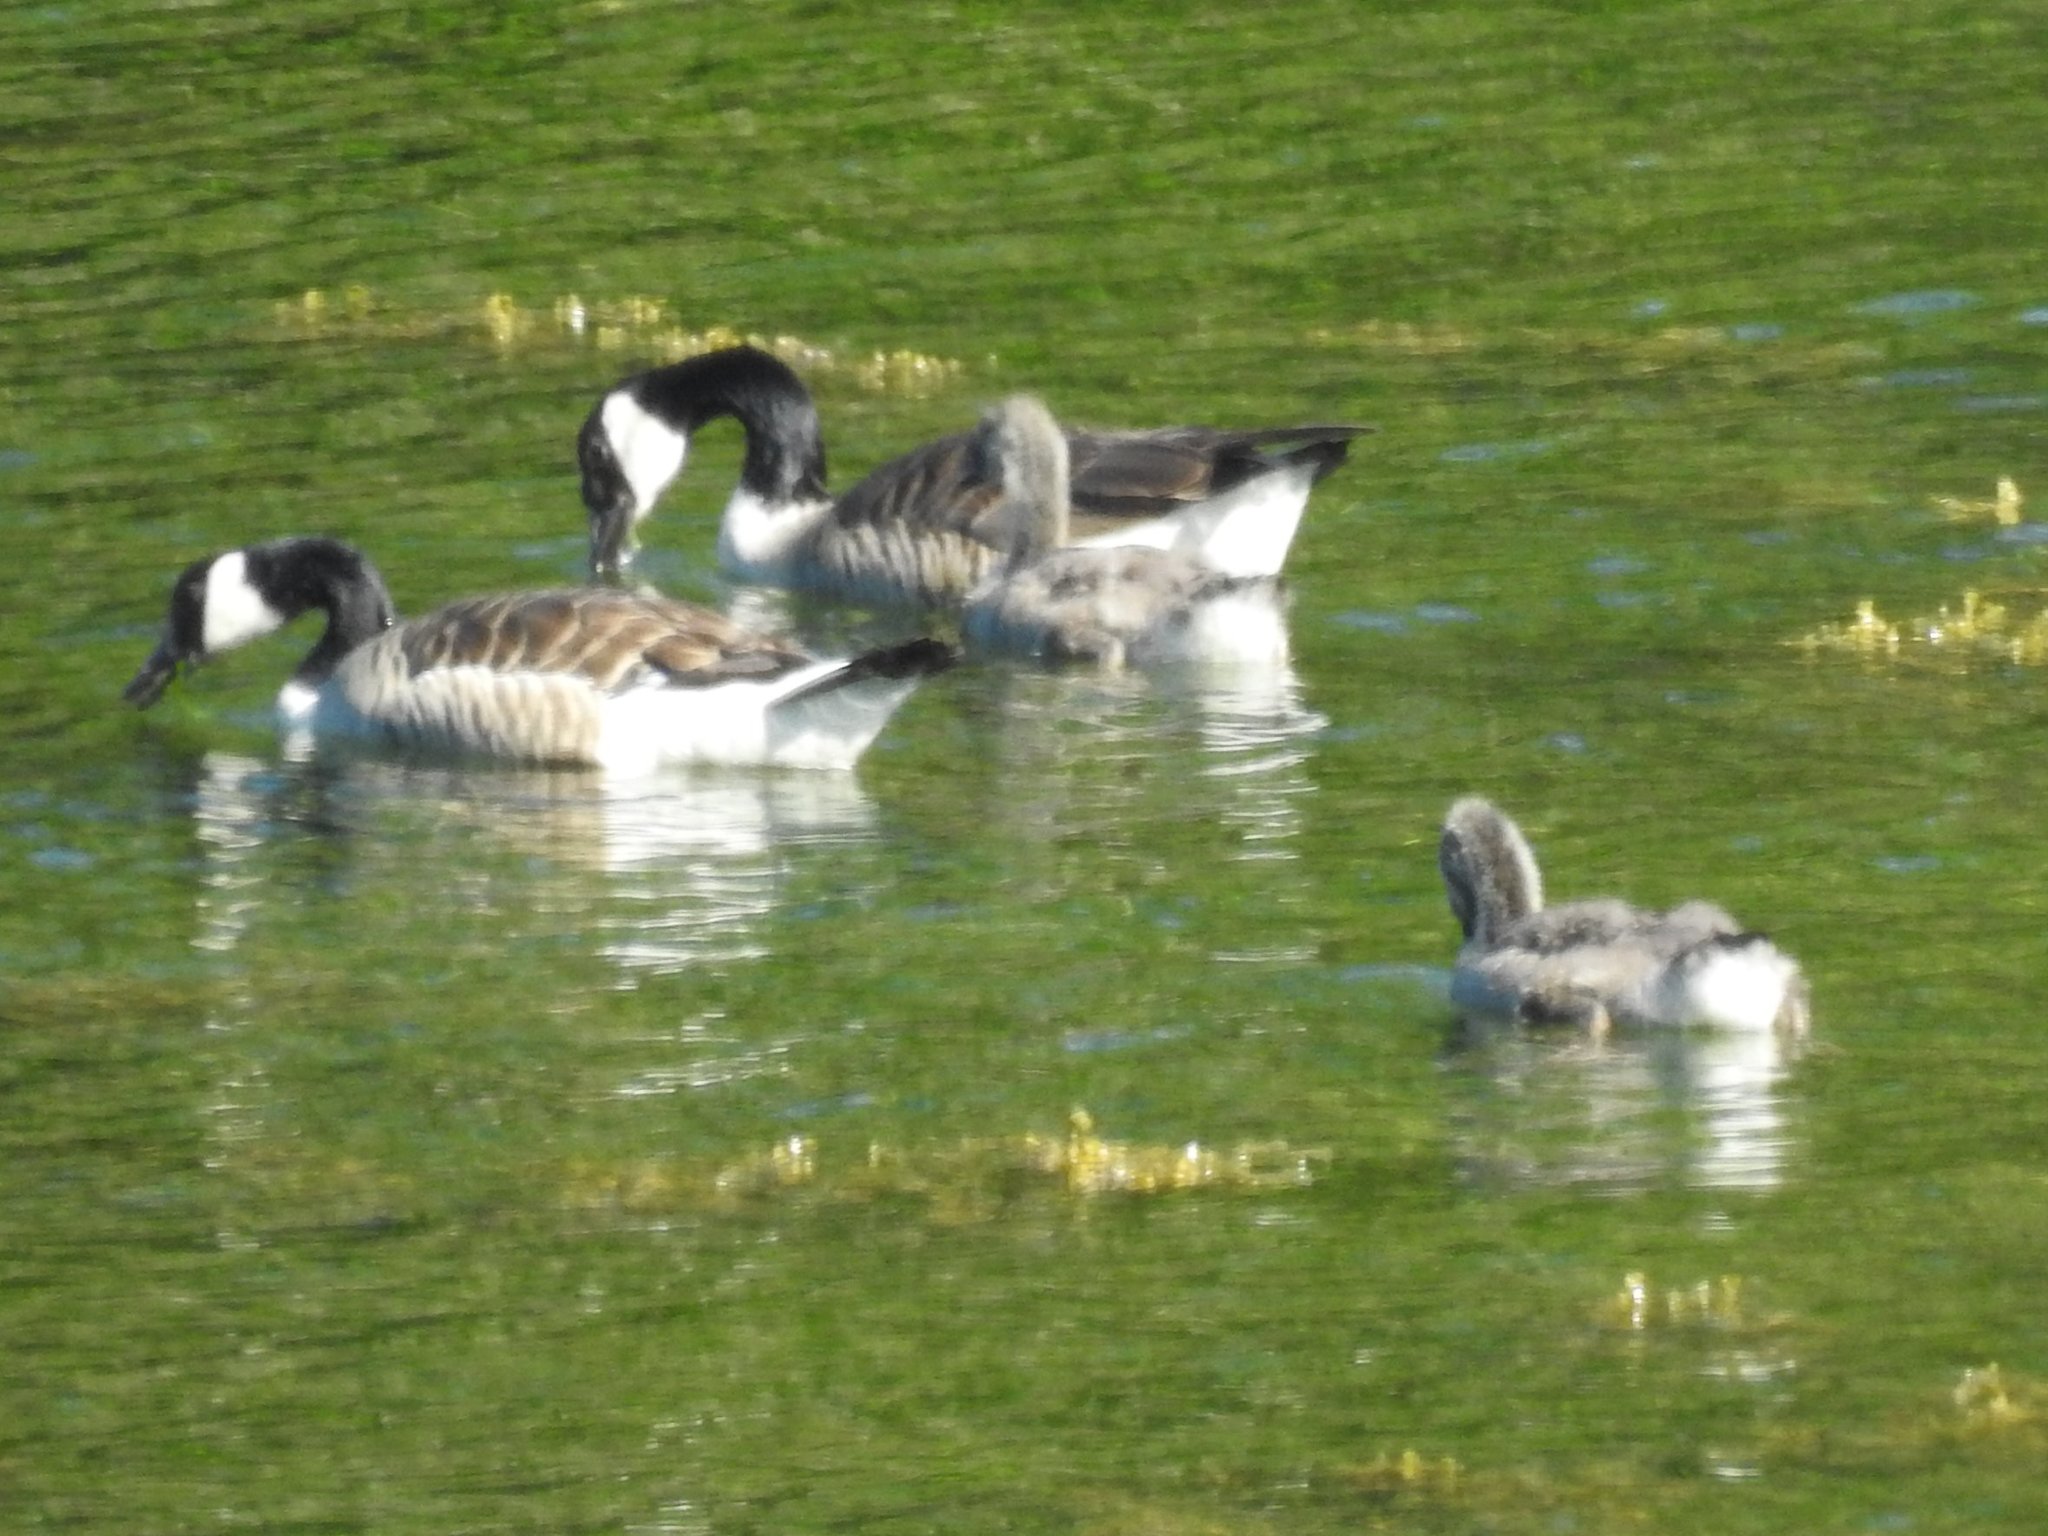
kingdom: Animalia
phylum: Chordata
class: Aves
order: Anseriformes
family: Anatidae
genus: Branta
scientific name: Branta canadensis
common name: Canada goose
